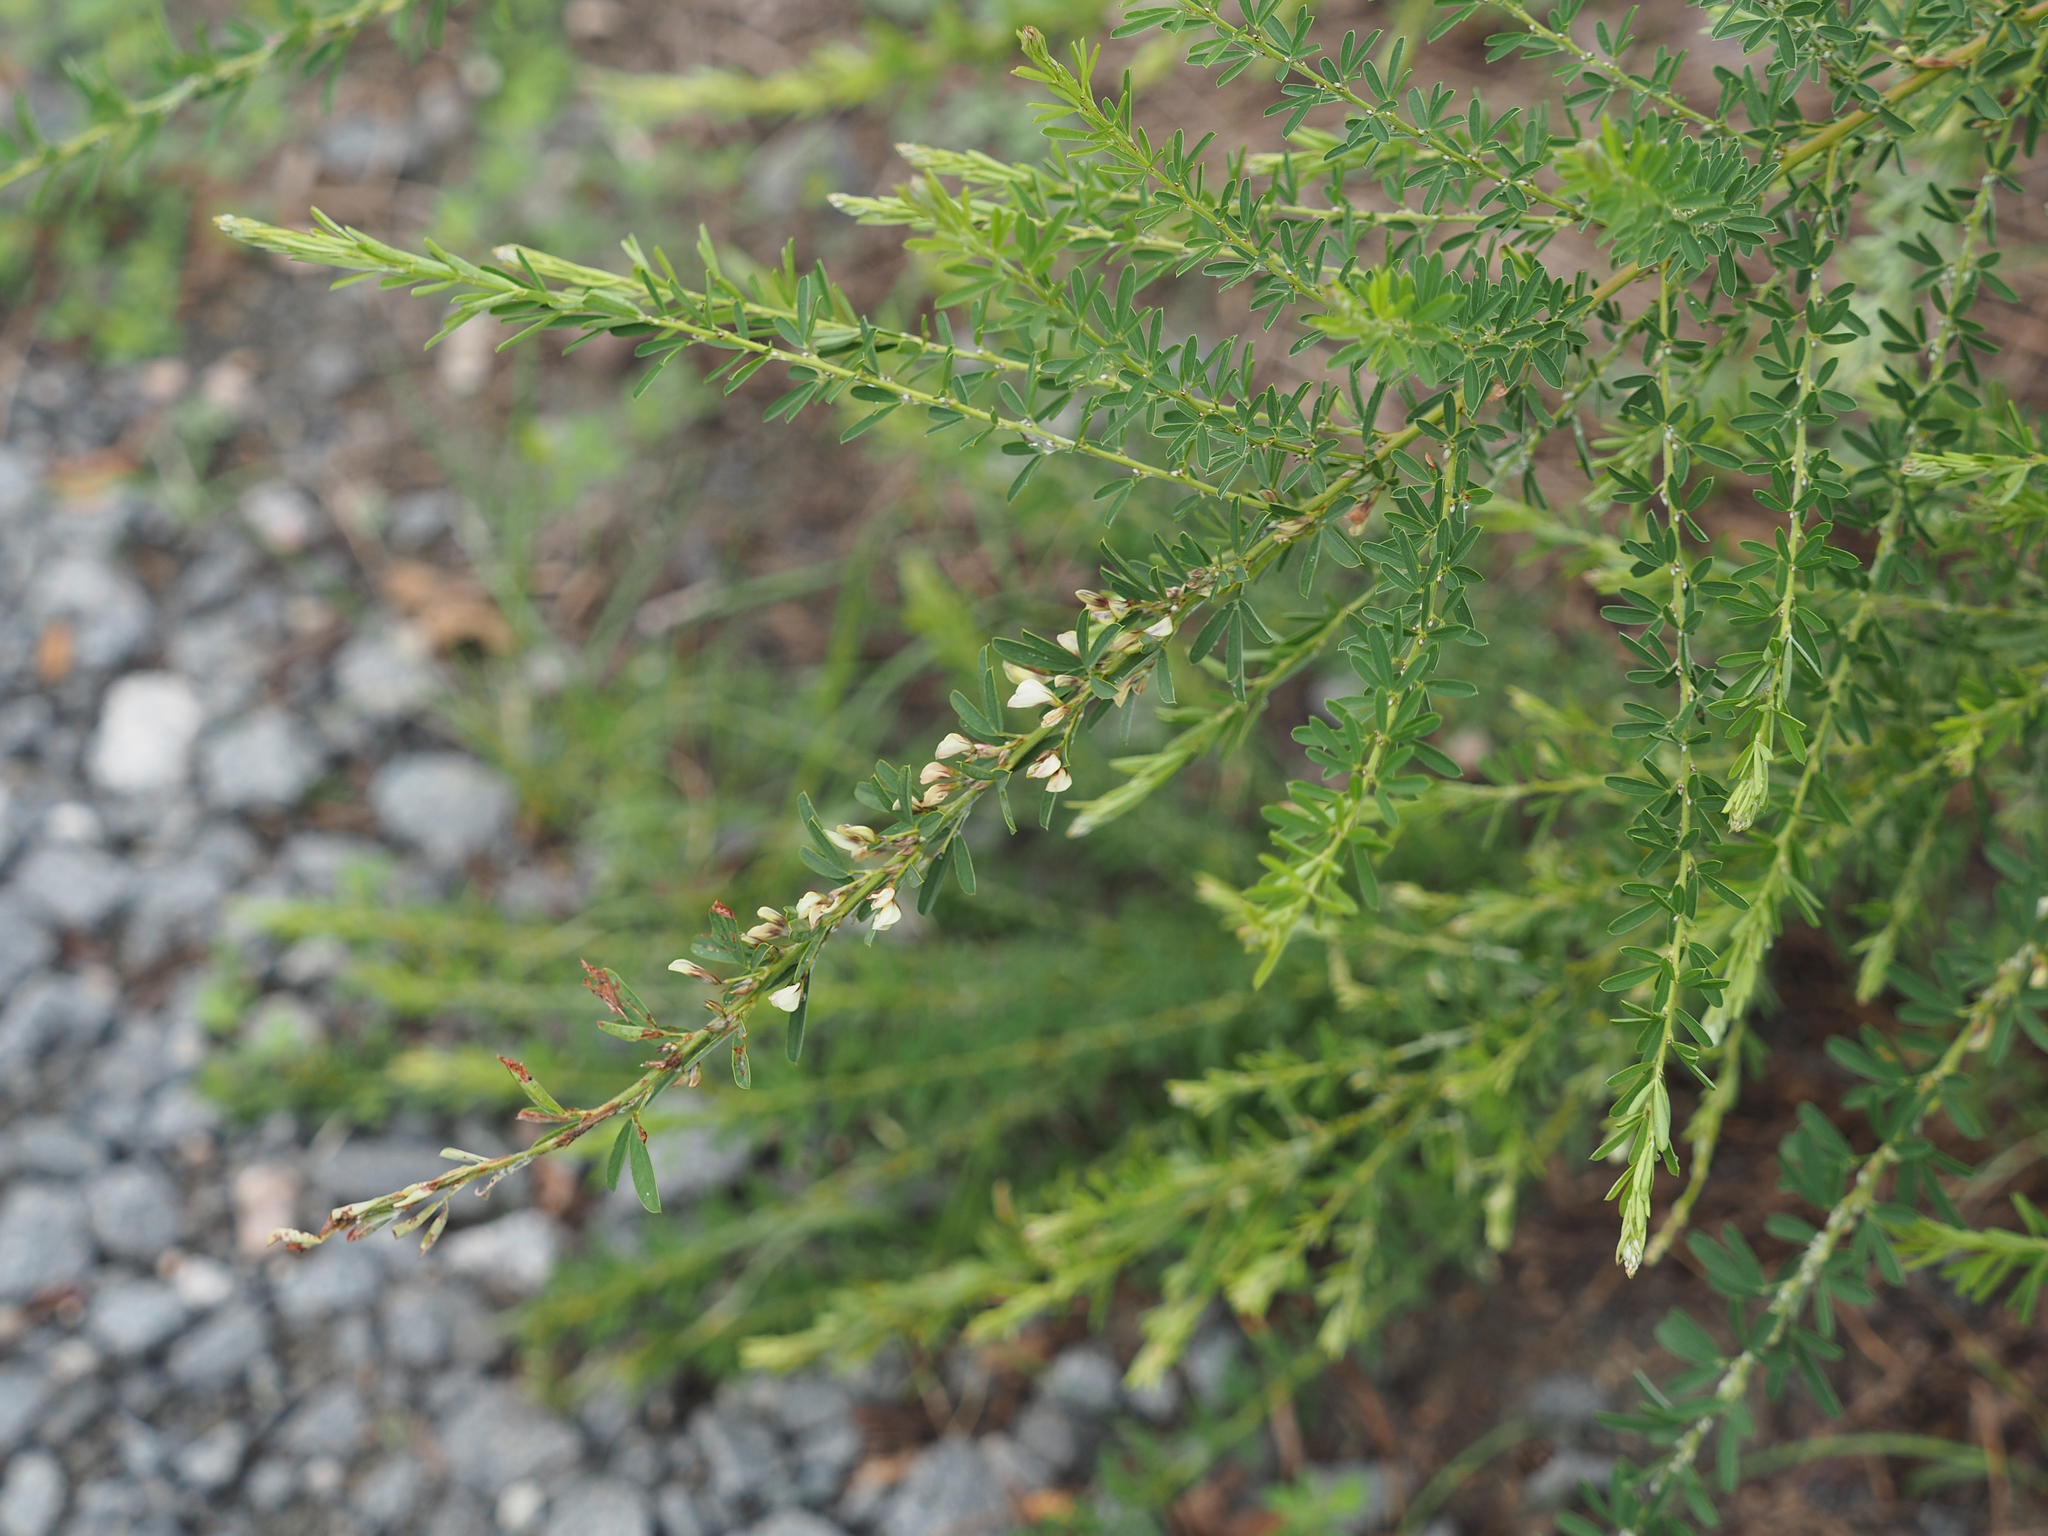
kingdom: Plantae
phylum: Tracheophyta
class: Magnoliopsida
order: Fabales
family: Fabaceae
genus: Lespedeza
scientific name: Lespedeza cuneata
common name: Chinese bush-clover
